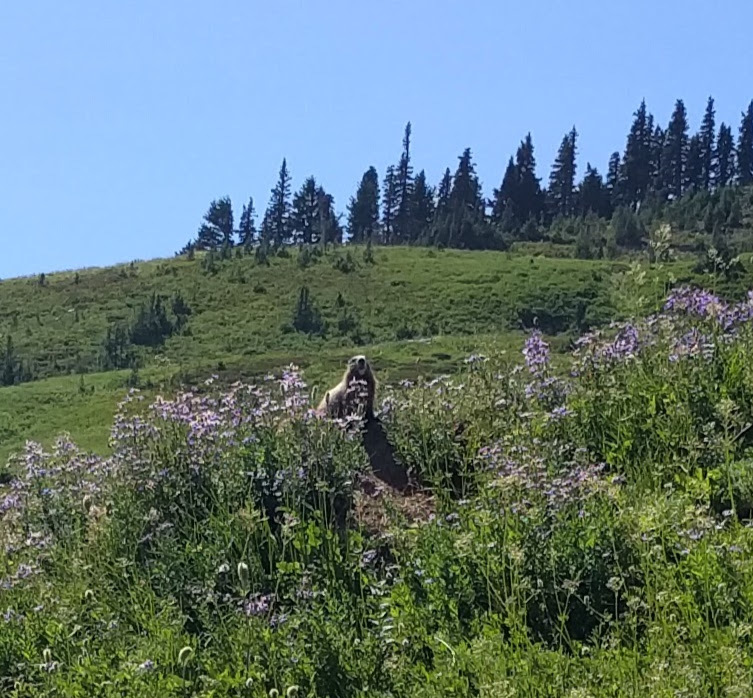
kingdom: Animalia
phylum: Chordata
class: Mammalia
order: Rodentia
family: Sciuridae
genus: Marmota
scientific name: Marmota caligata
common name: Hoary marmot
